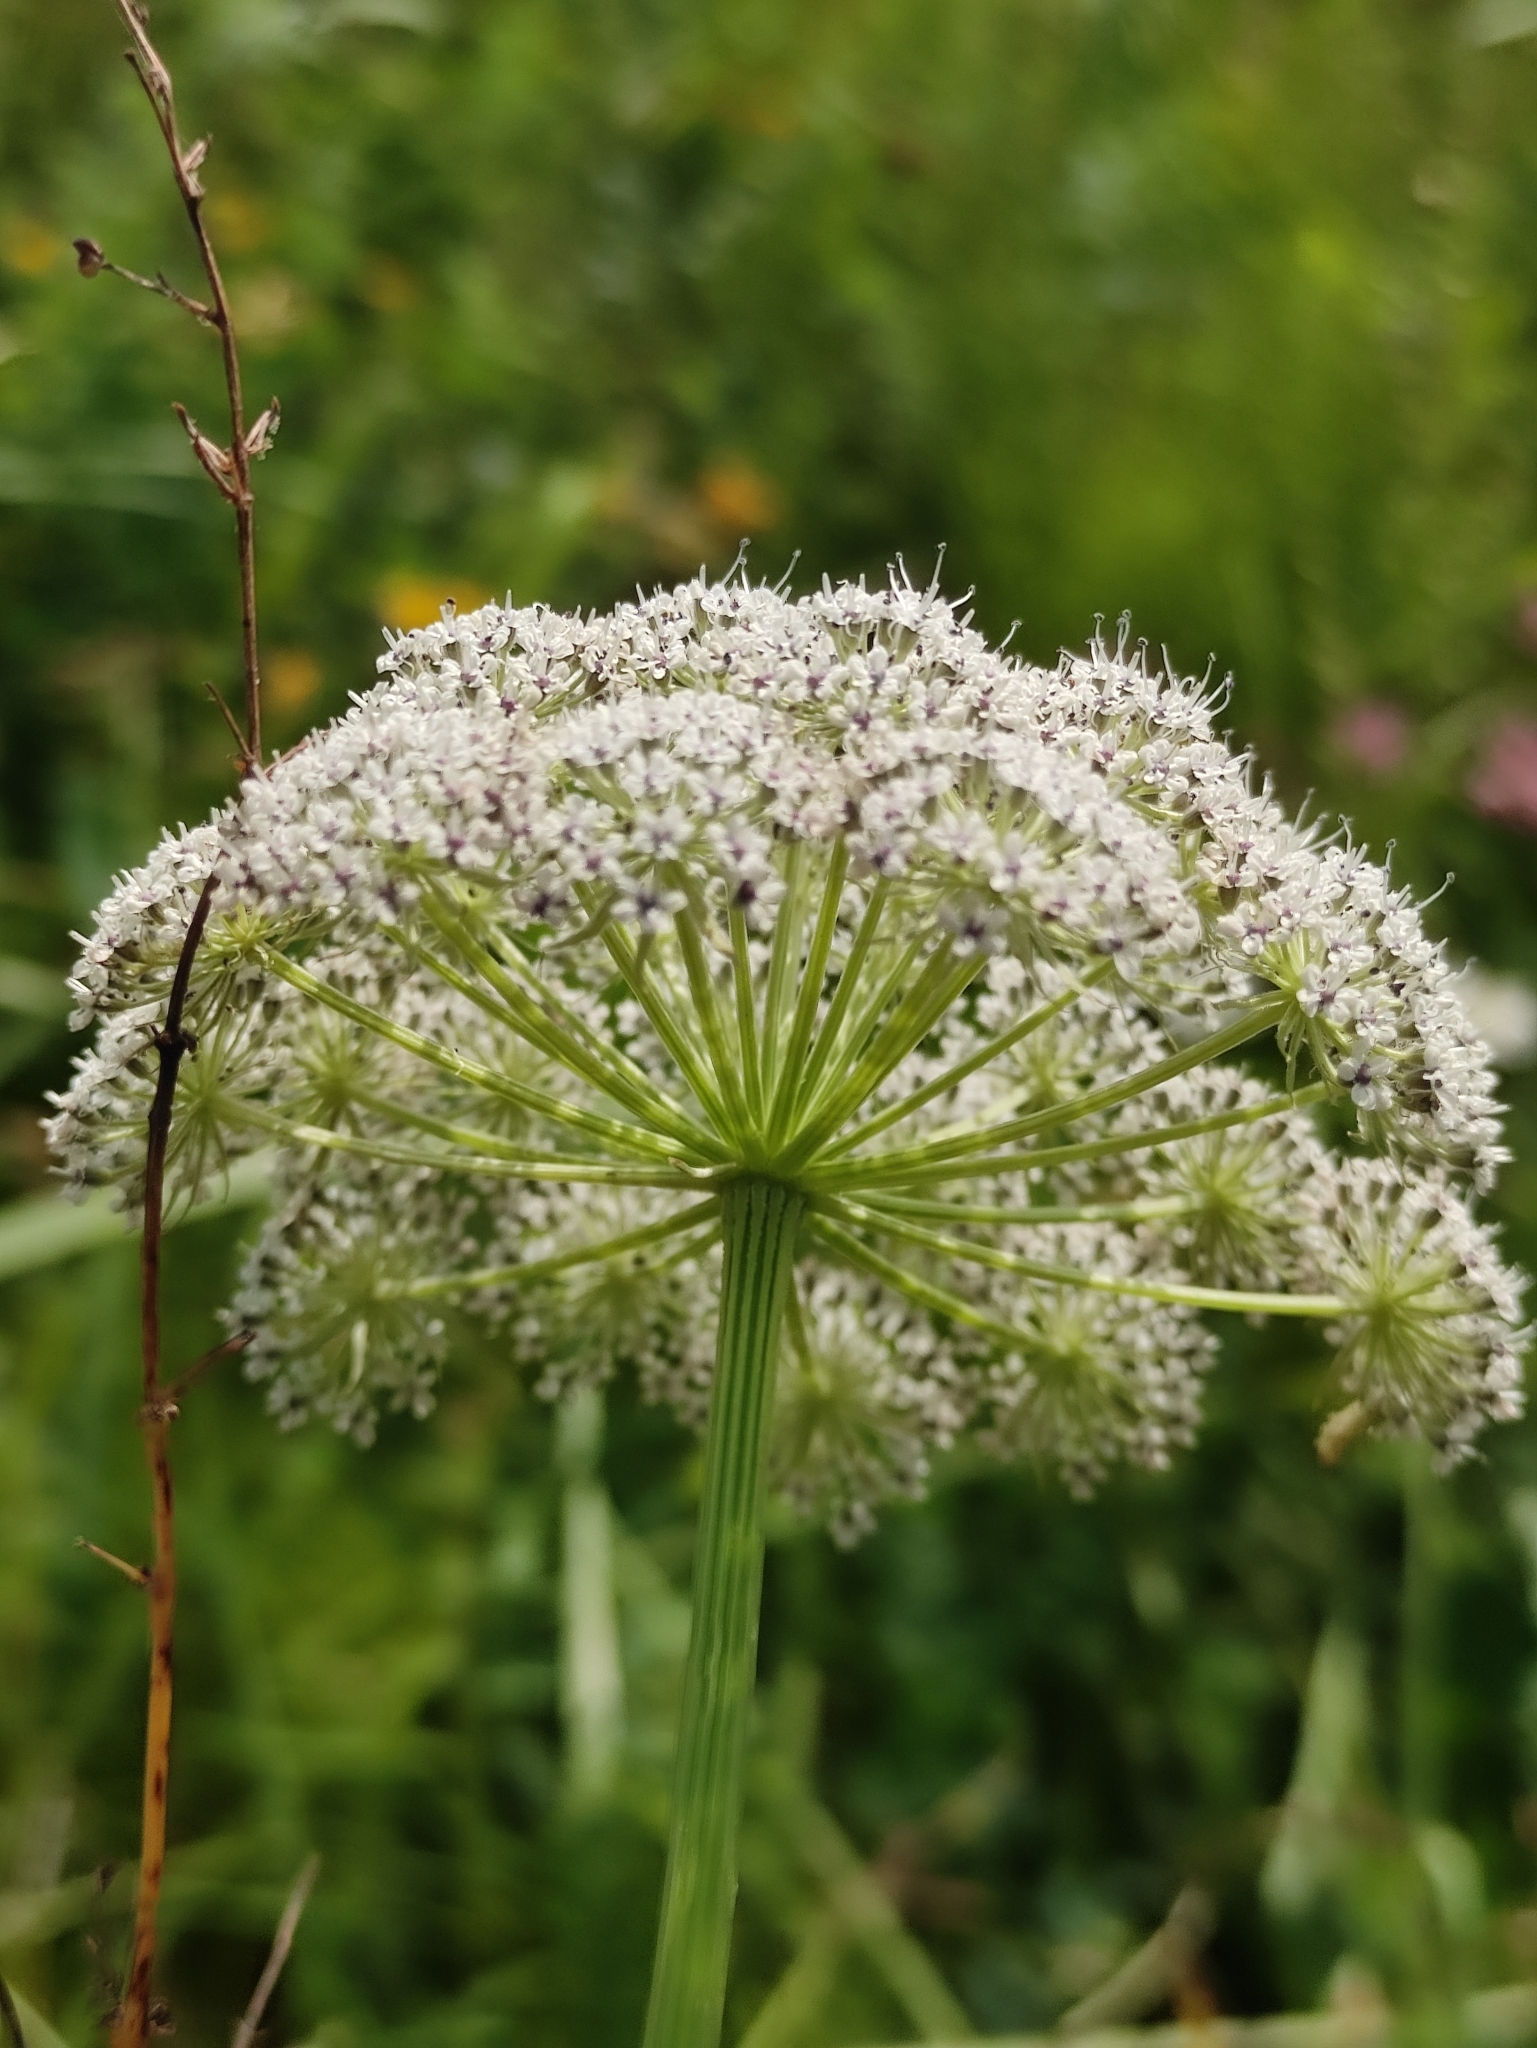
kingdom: Plantae
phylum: Tracheophyta
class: Magnoliopsida
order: Apiales
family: Apiaceae
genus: Seseli
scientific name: Seseli libanotis
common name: Mooncarrot
